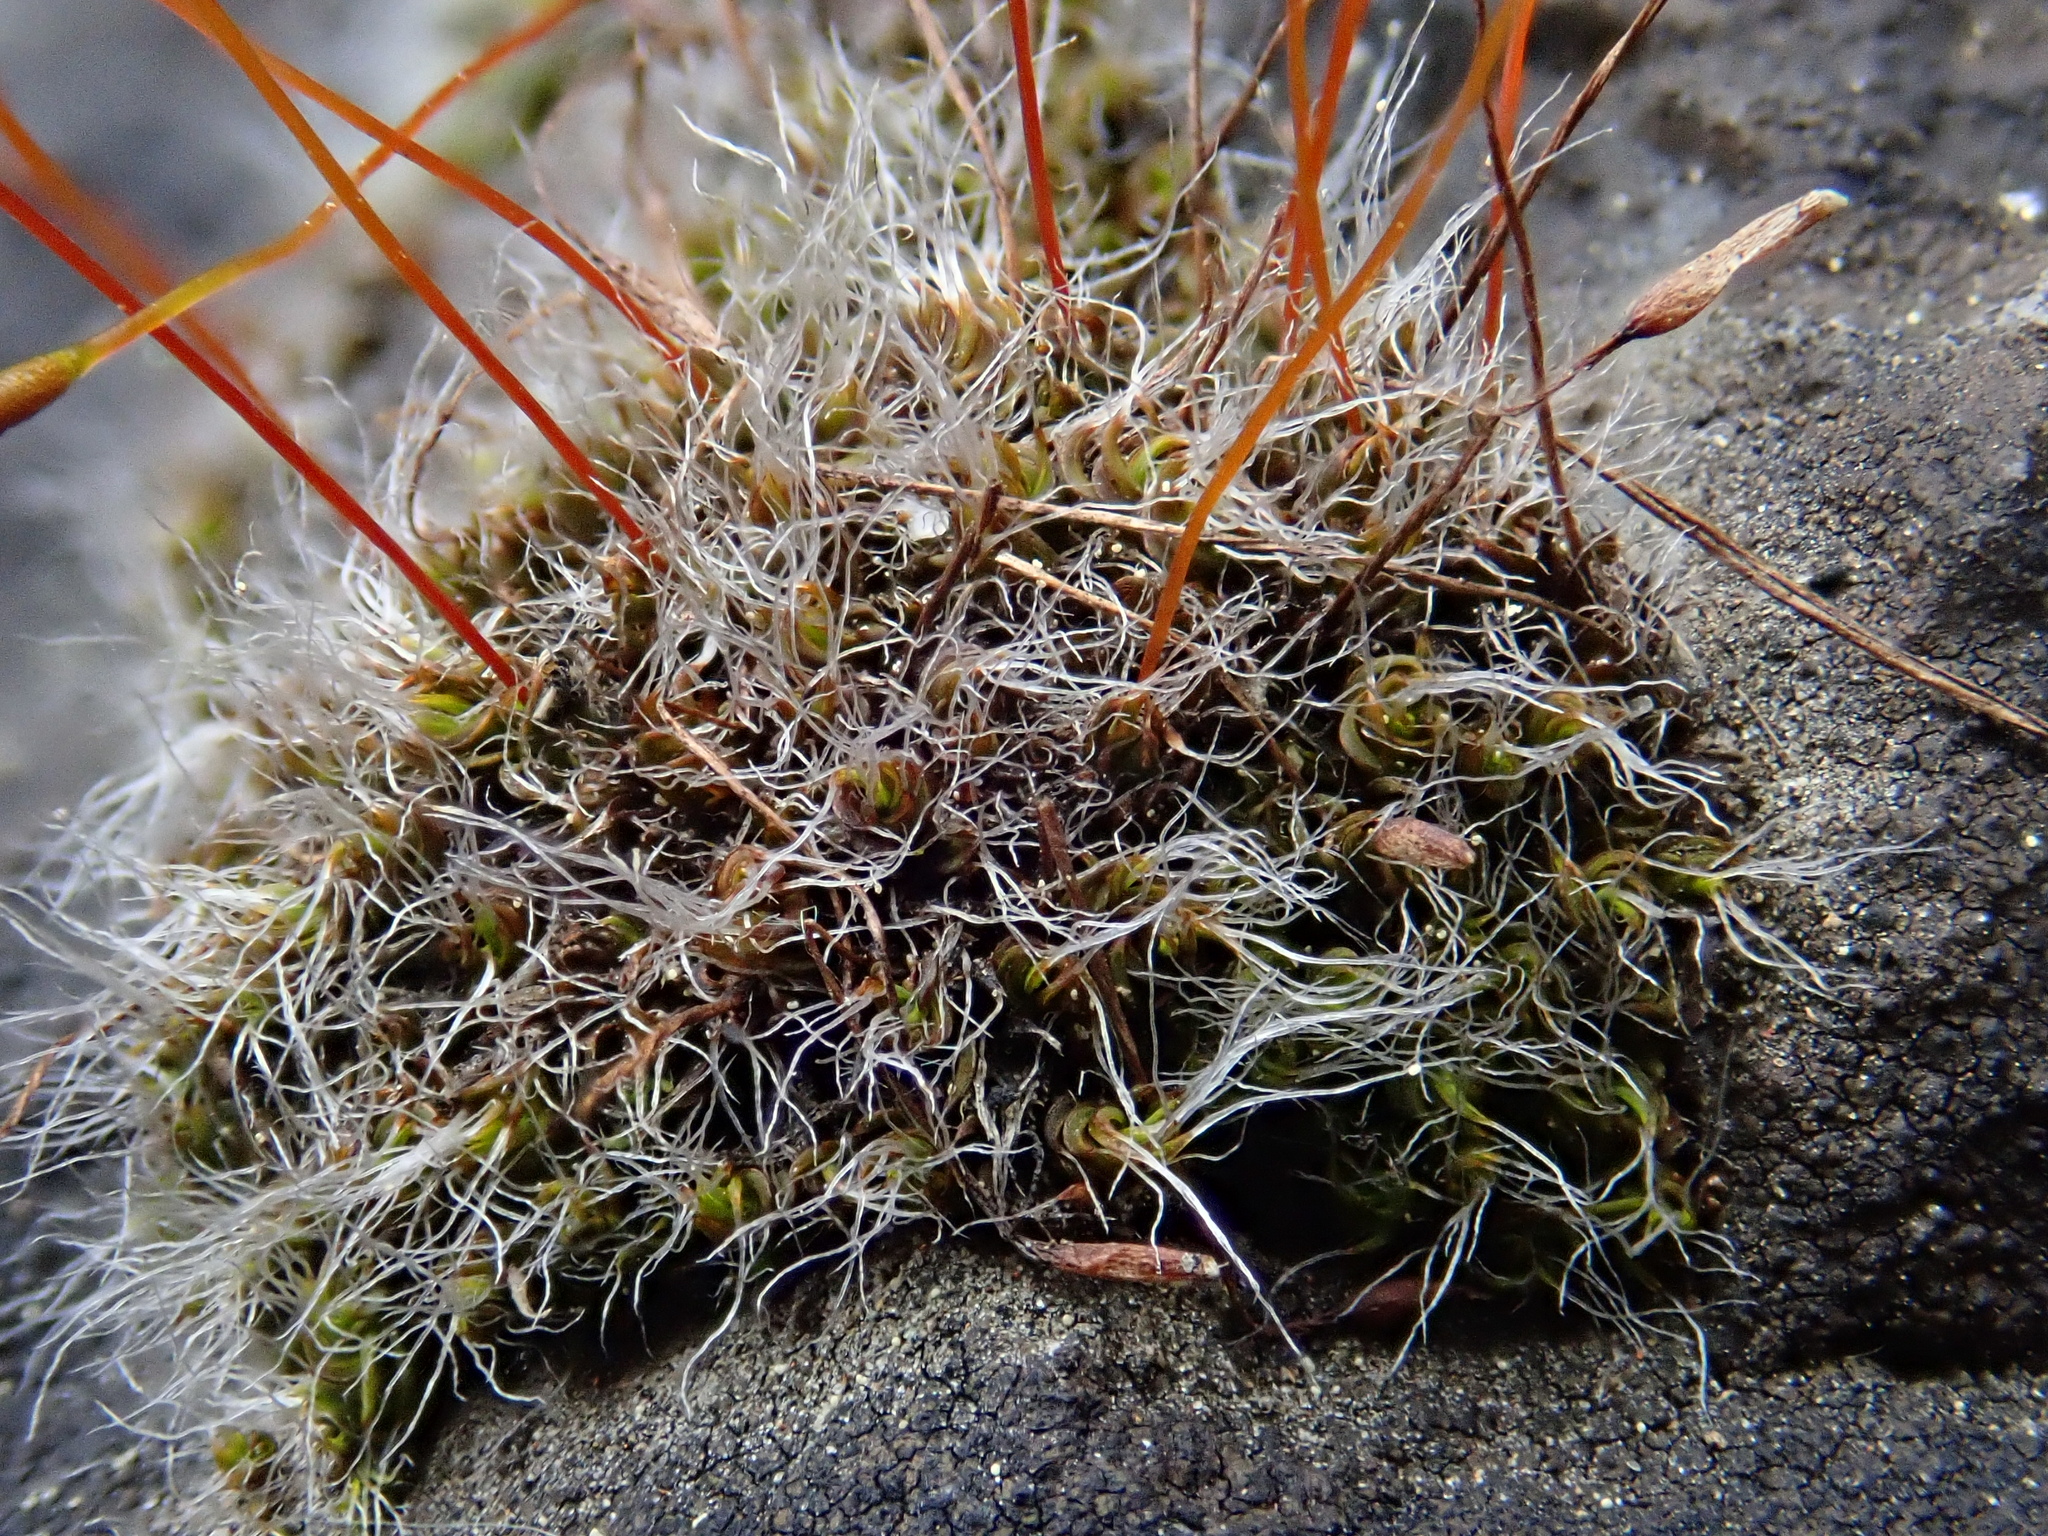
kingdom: Plantae
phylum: Bryophyta
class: Bryopsida
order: Pottiales
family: Pottiaceae
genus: Tortula
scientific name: Tortula muralis
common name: Wall screw-moss
